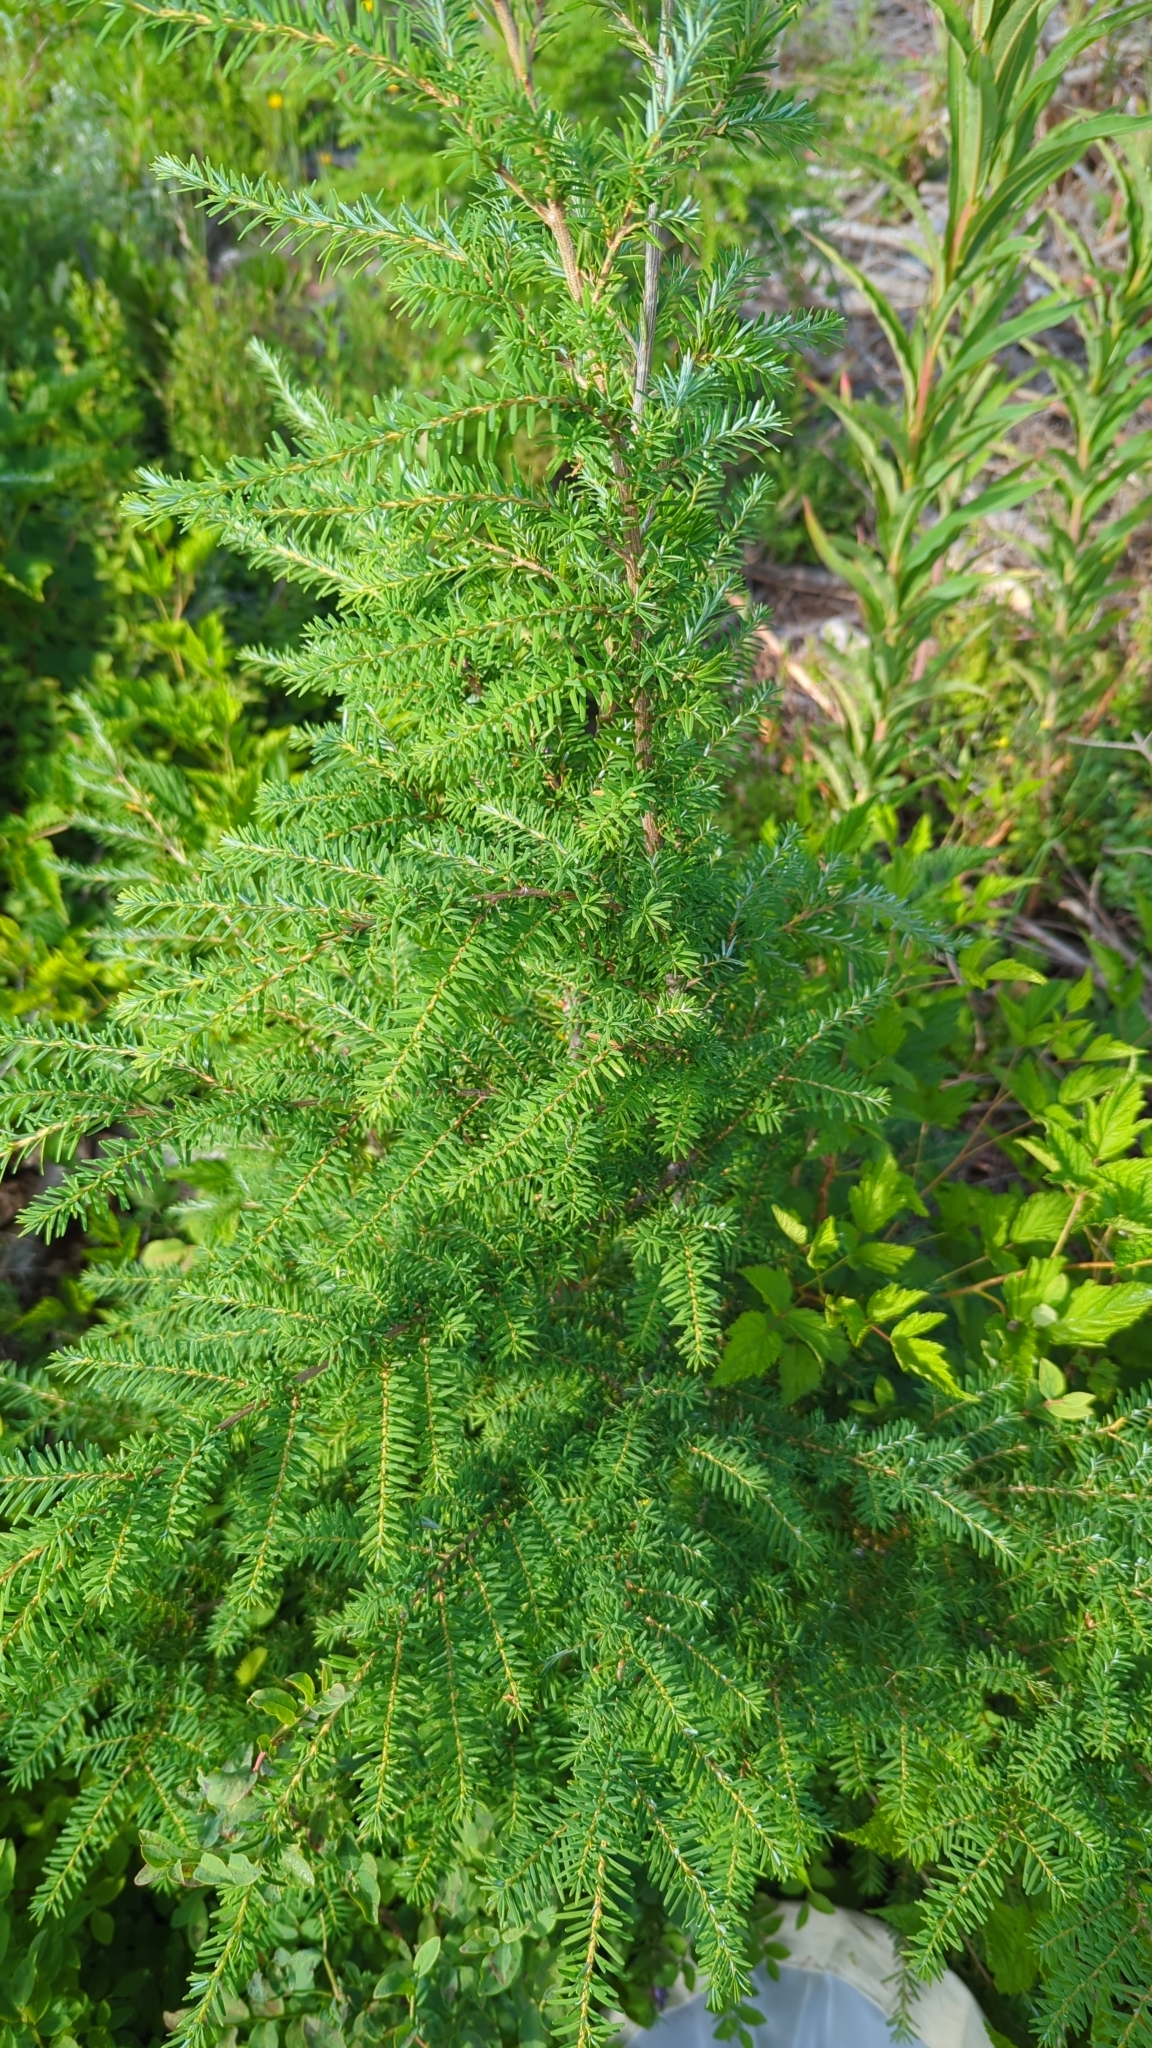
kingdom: Plantae
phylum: Tracheophyta
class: Pinopsida
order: Pinales
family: Pinaceae
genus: Tsuga
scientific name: Tsuga heterophylla
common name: Western hemlock
